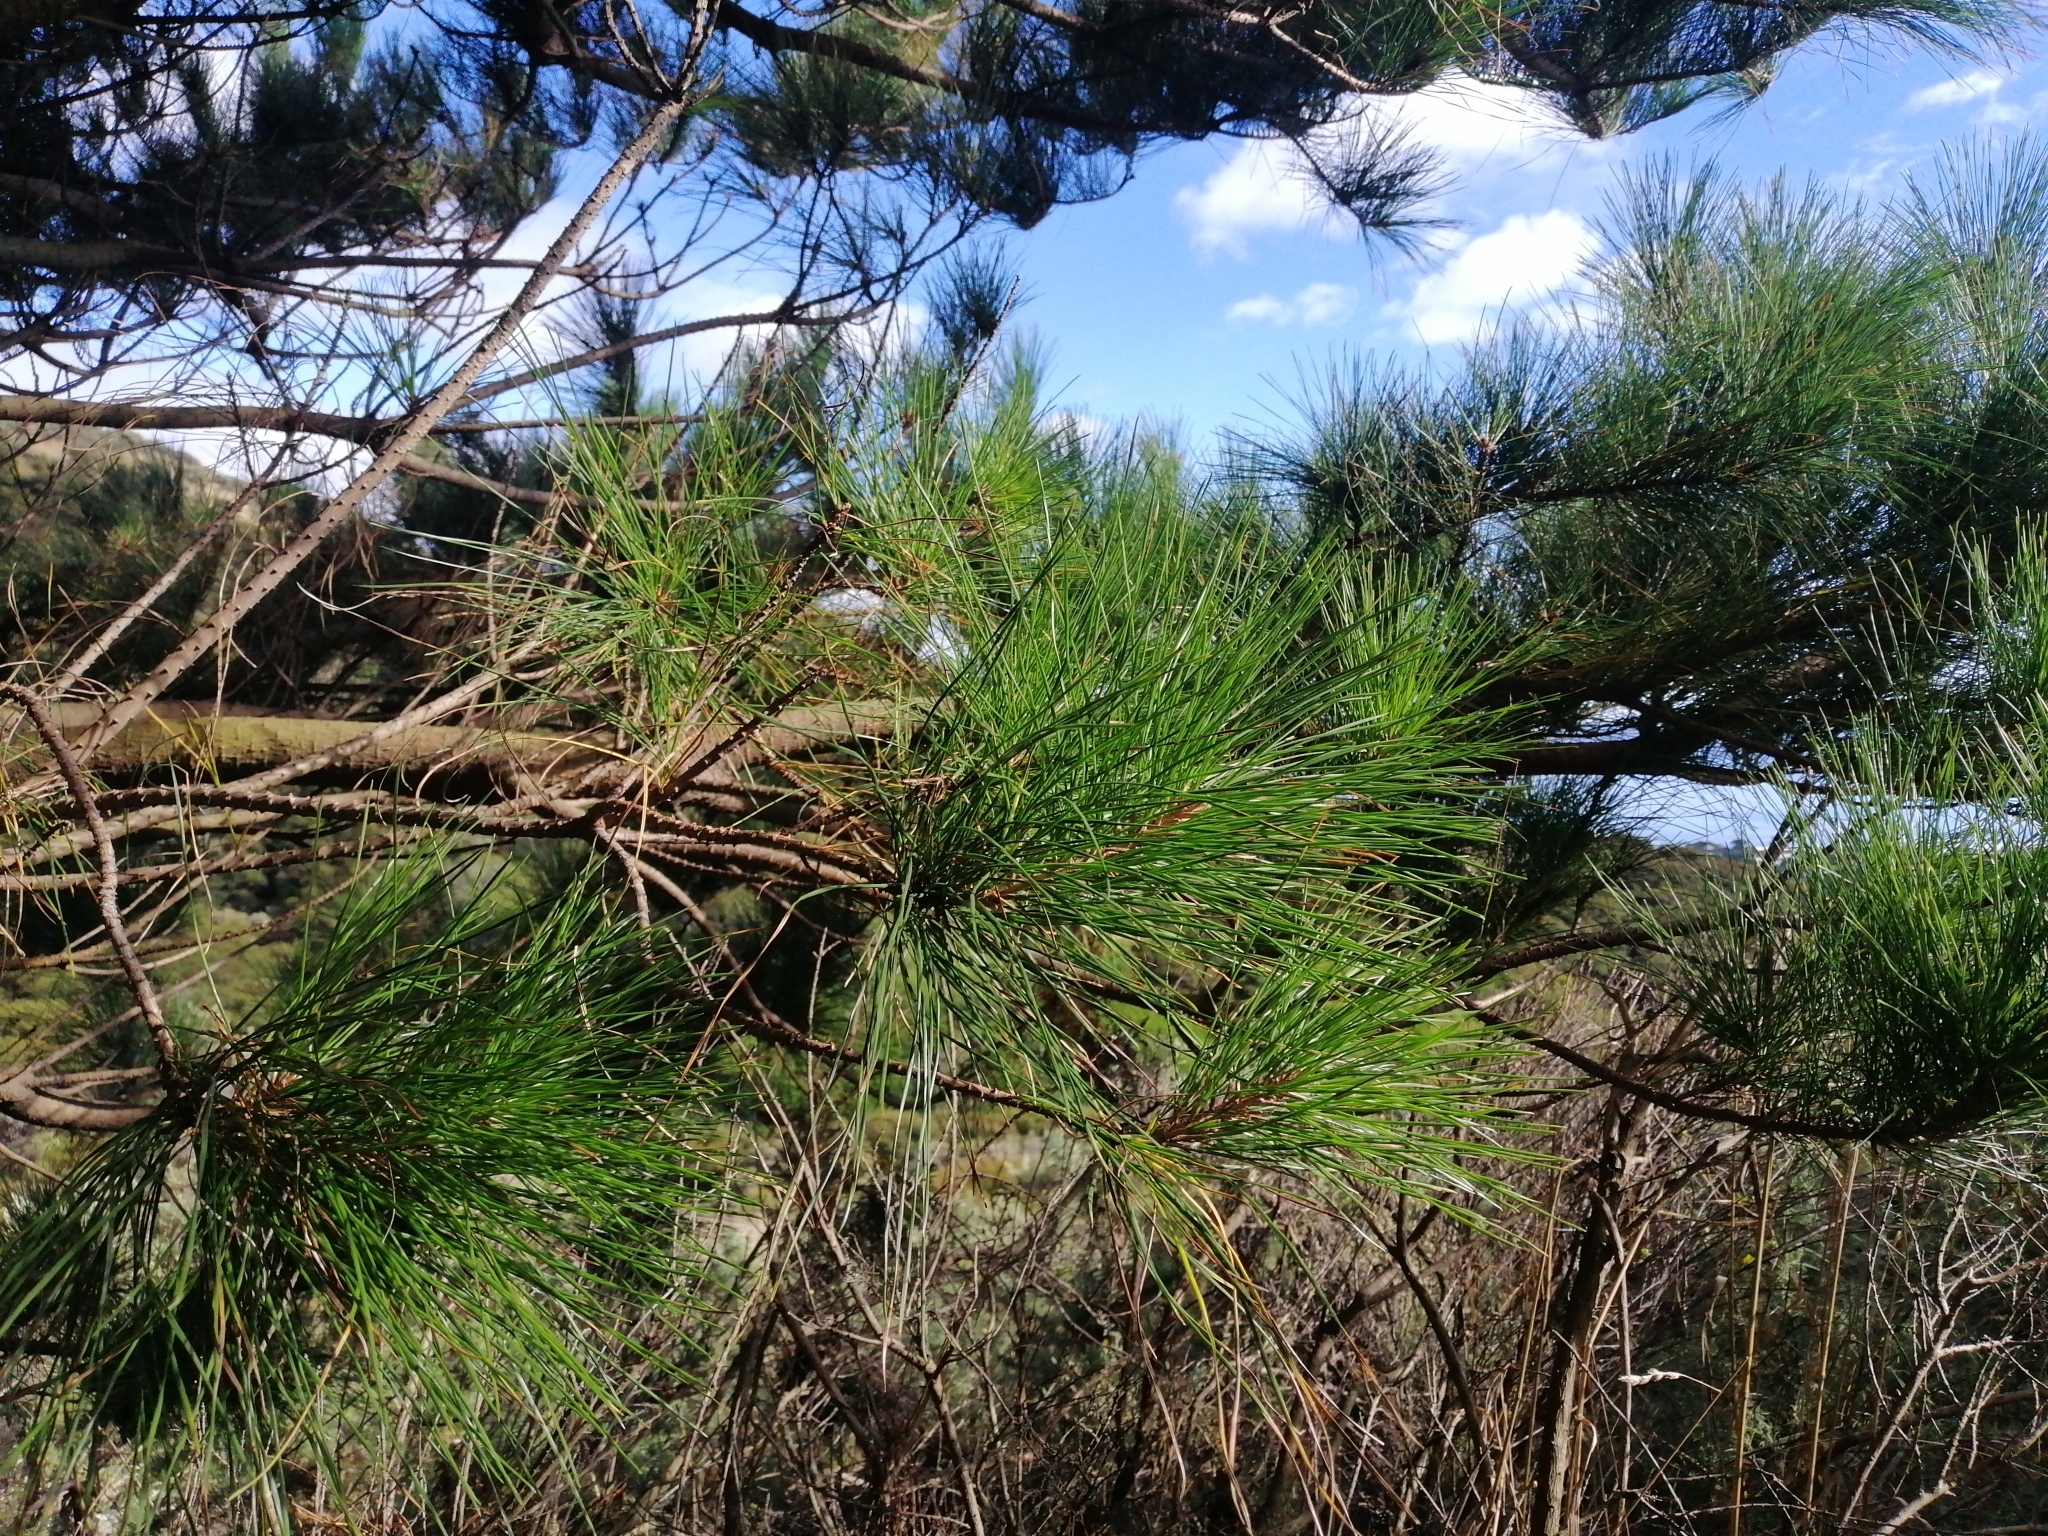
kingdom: Plantae
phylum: Tracheophyta
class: Pinopsida
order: Pinales
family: Pinaceae
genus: Pinus
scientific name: Pinus radiata
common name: Monterey pine
